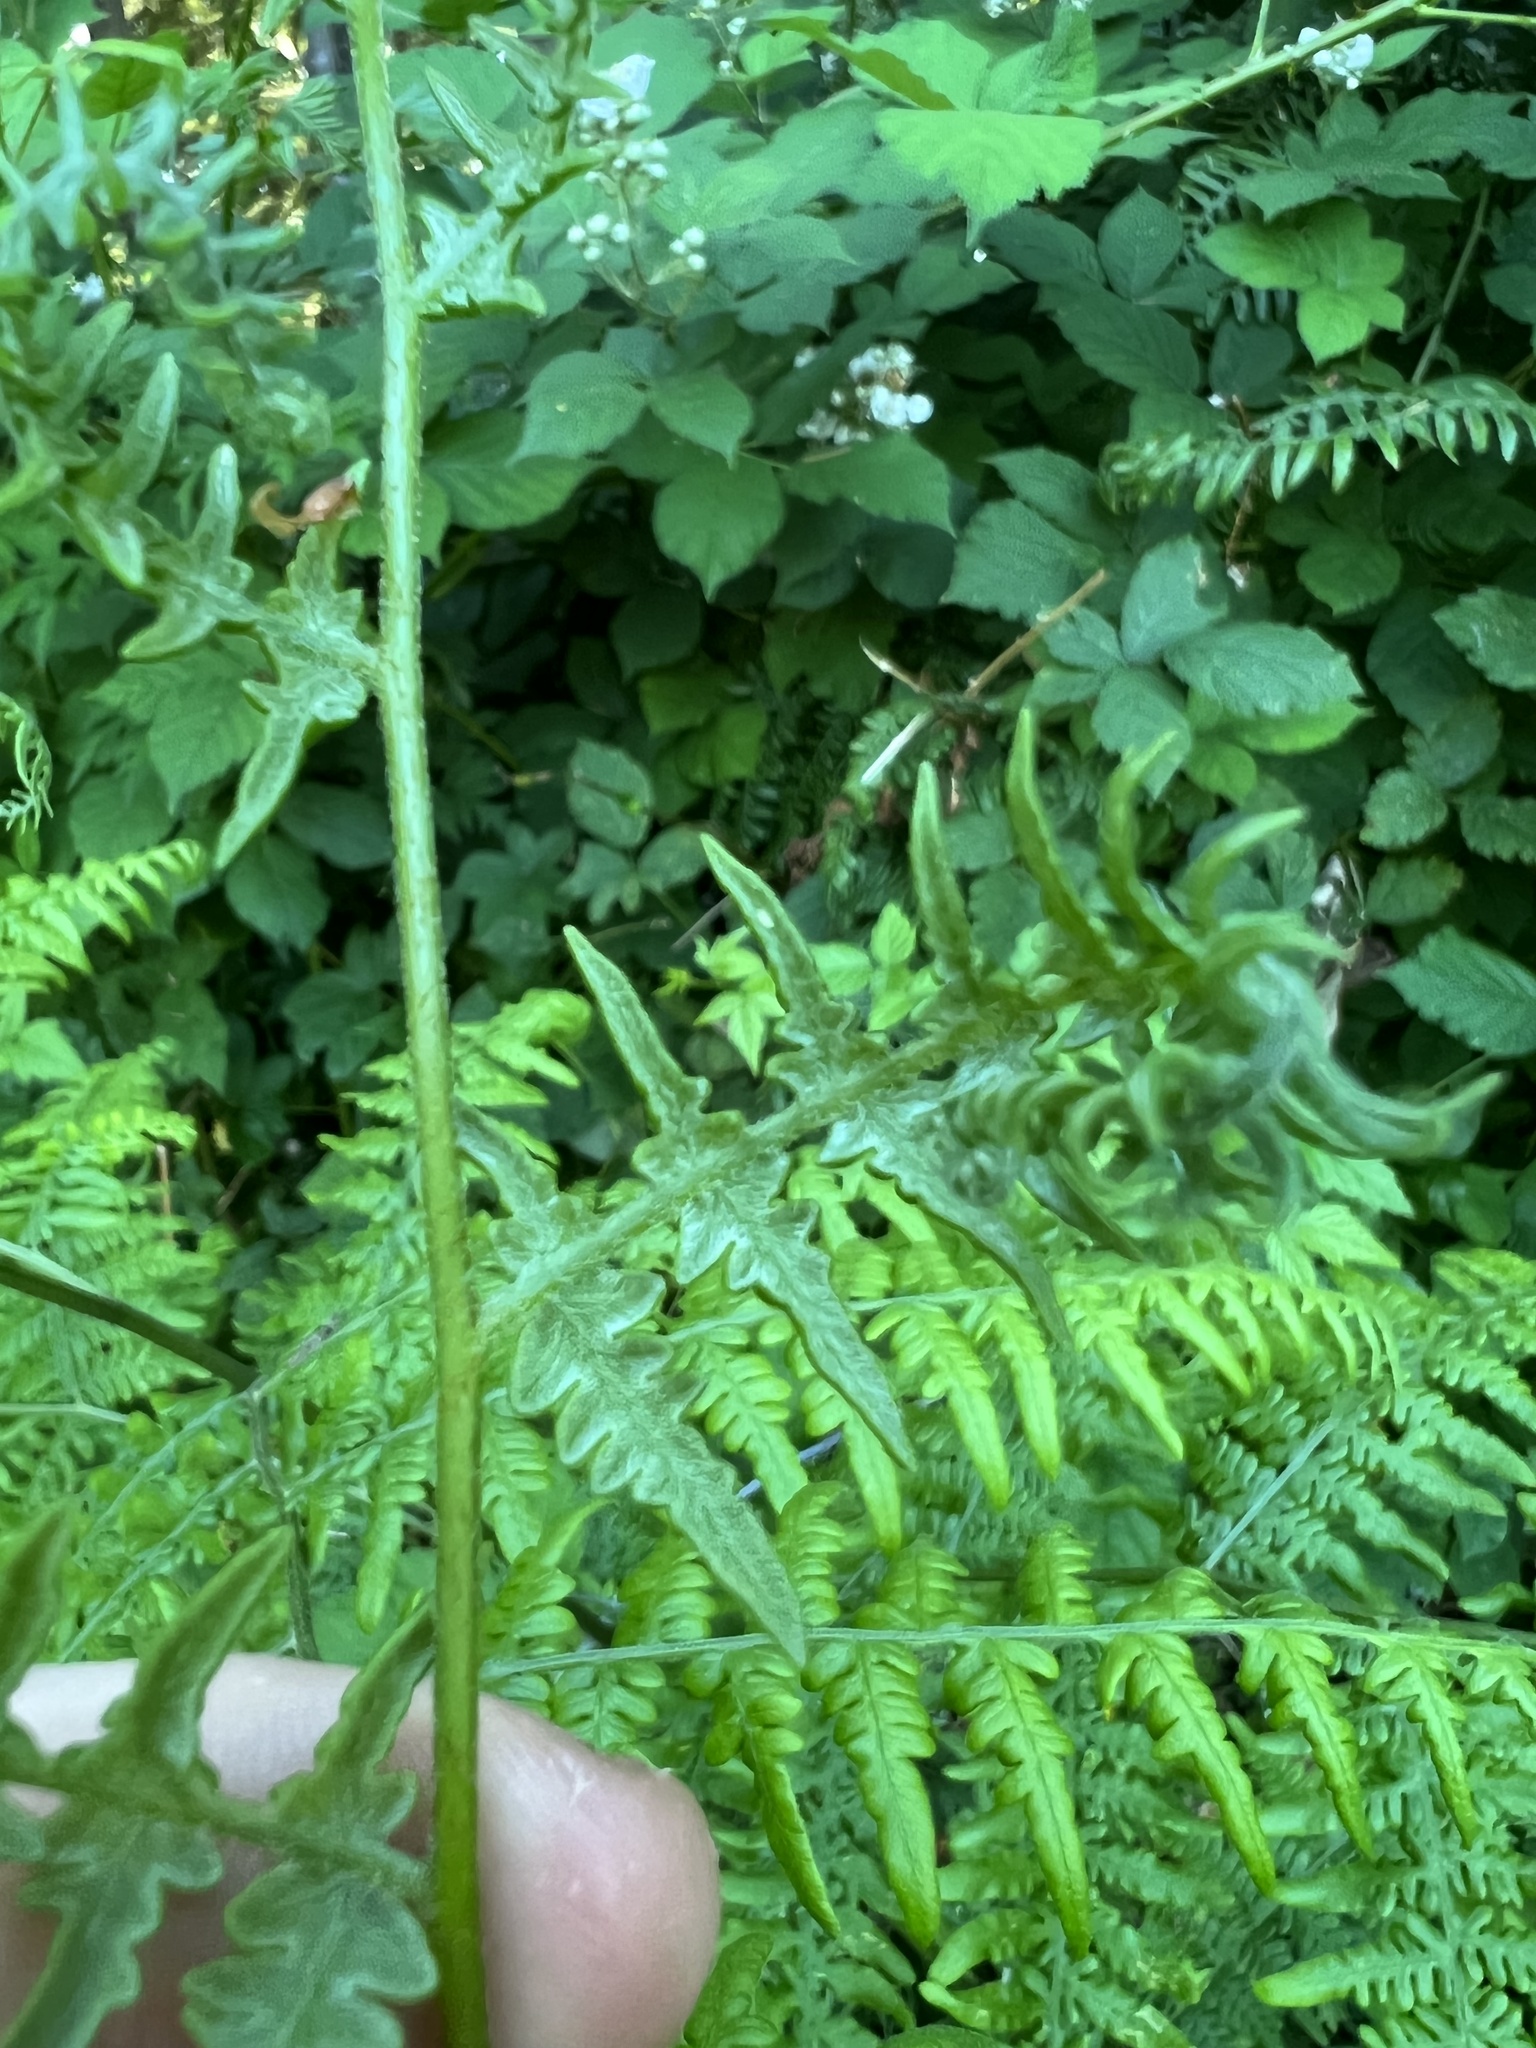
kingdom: Plantae
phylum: Tracheophyta
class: Polypodiopsida
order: Polypodiales
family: Dennstaedtiaceae
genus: Pteridium
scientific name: Pteridium aquilinum
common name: Bracken
